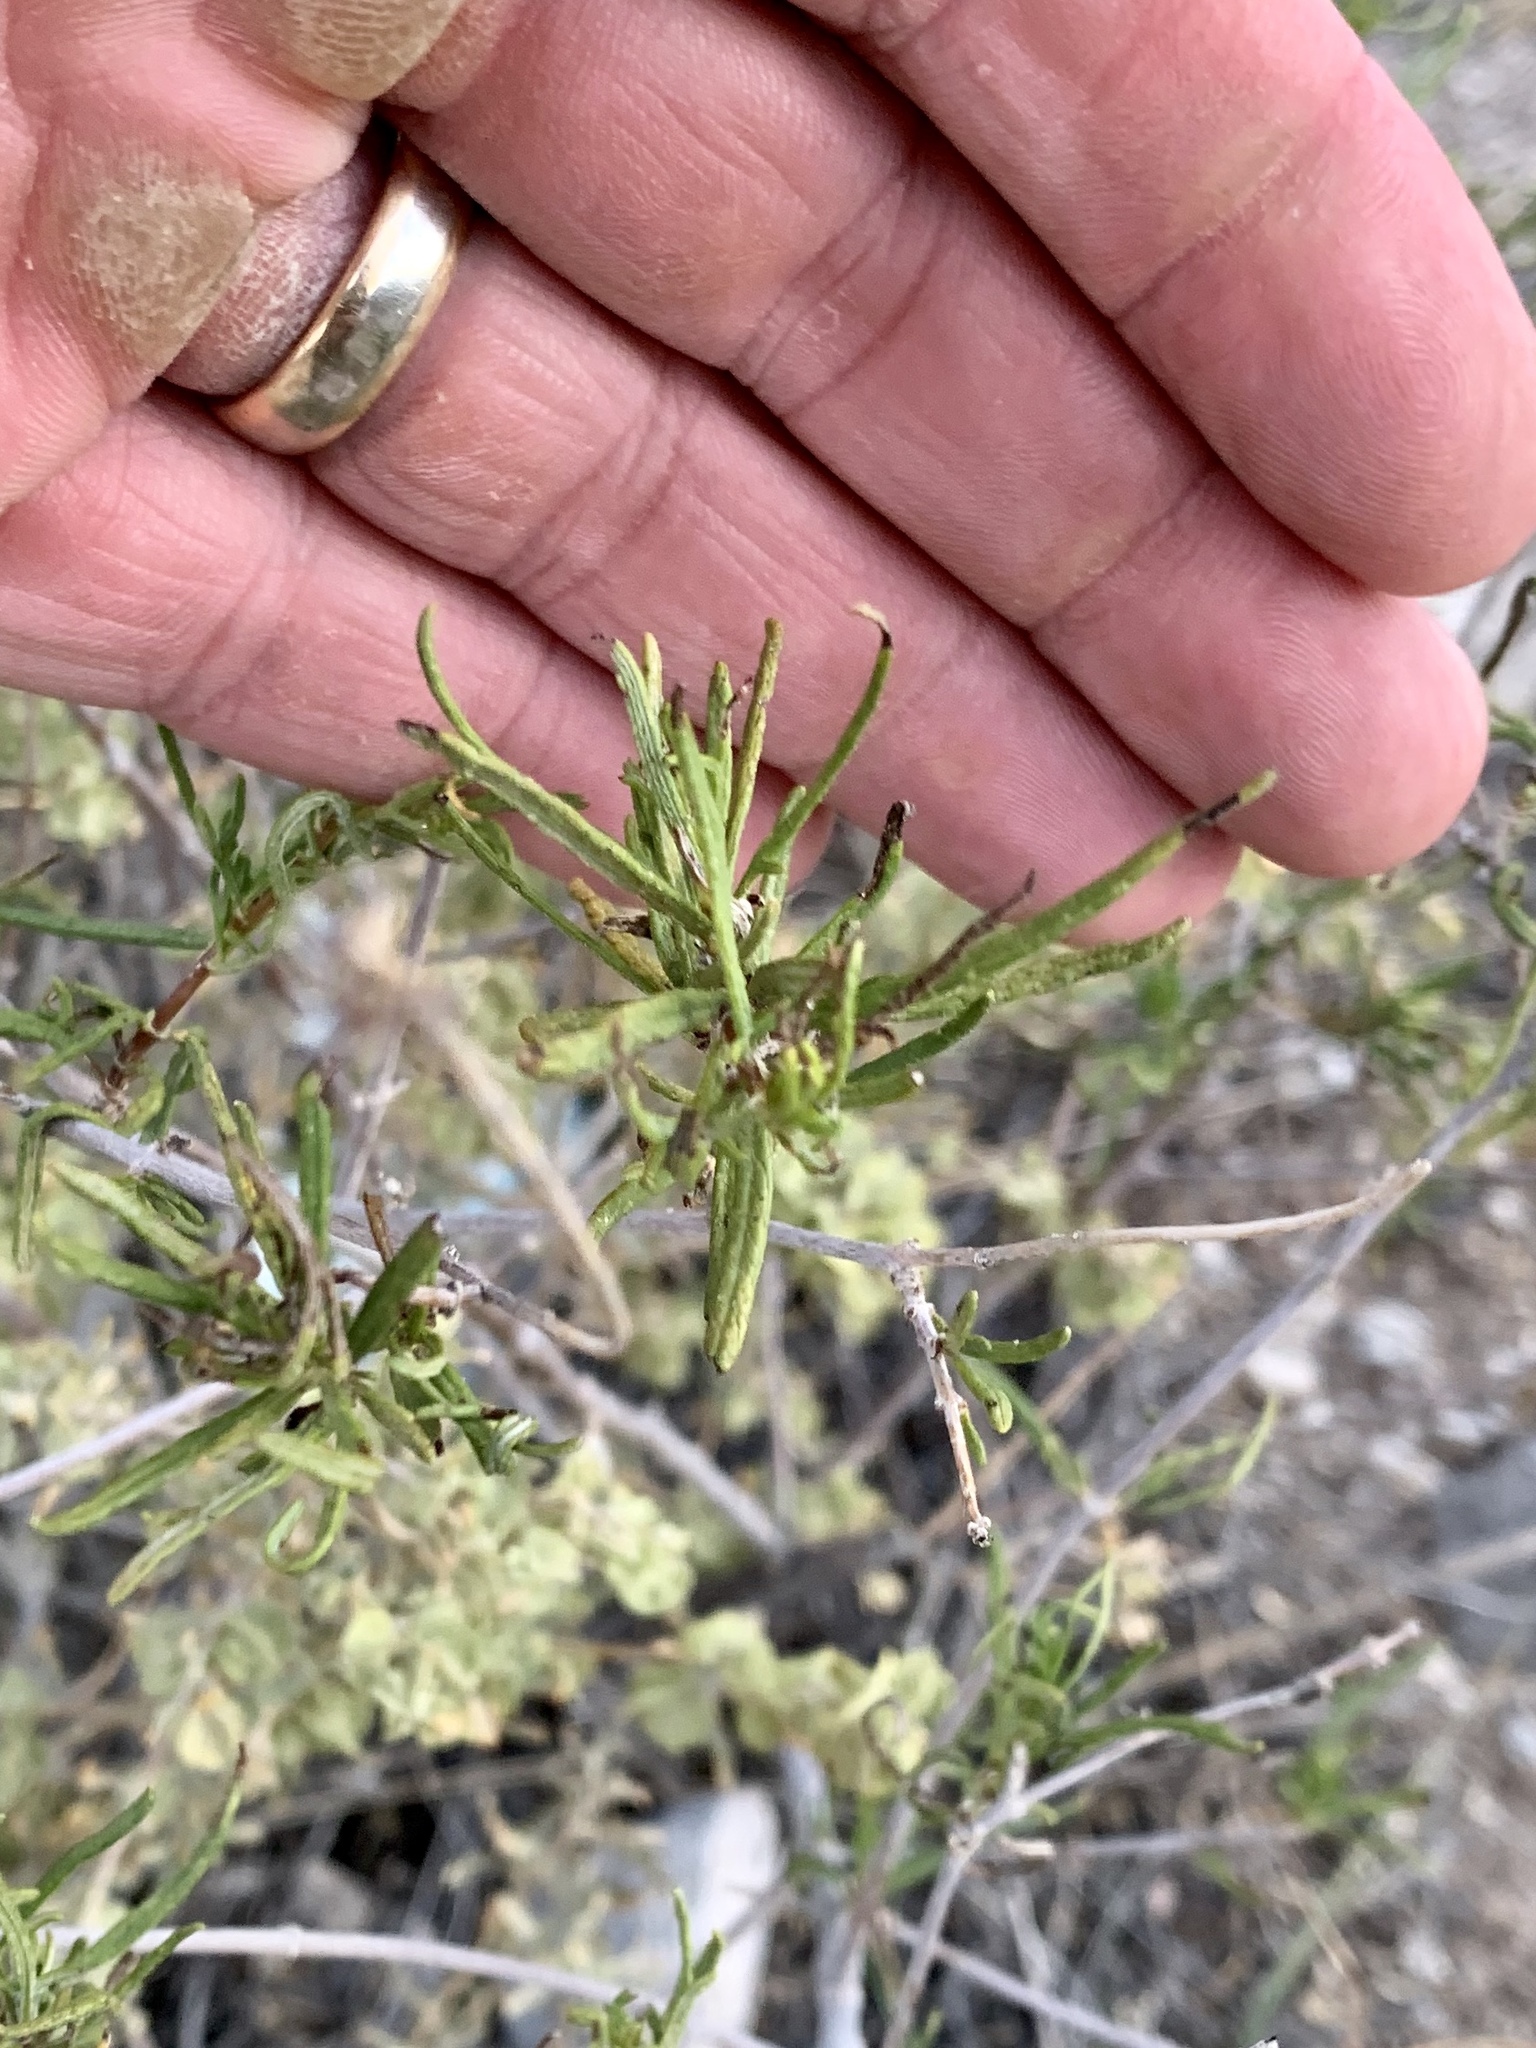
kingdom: Plantae
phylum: Tracheophyta
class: Magnoliopsida
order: Asterales
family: Asteraceae
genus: Sidneya
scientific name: Sidneya tenuifolia
